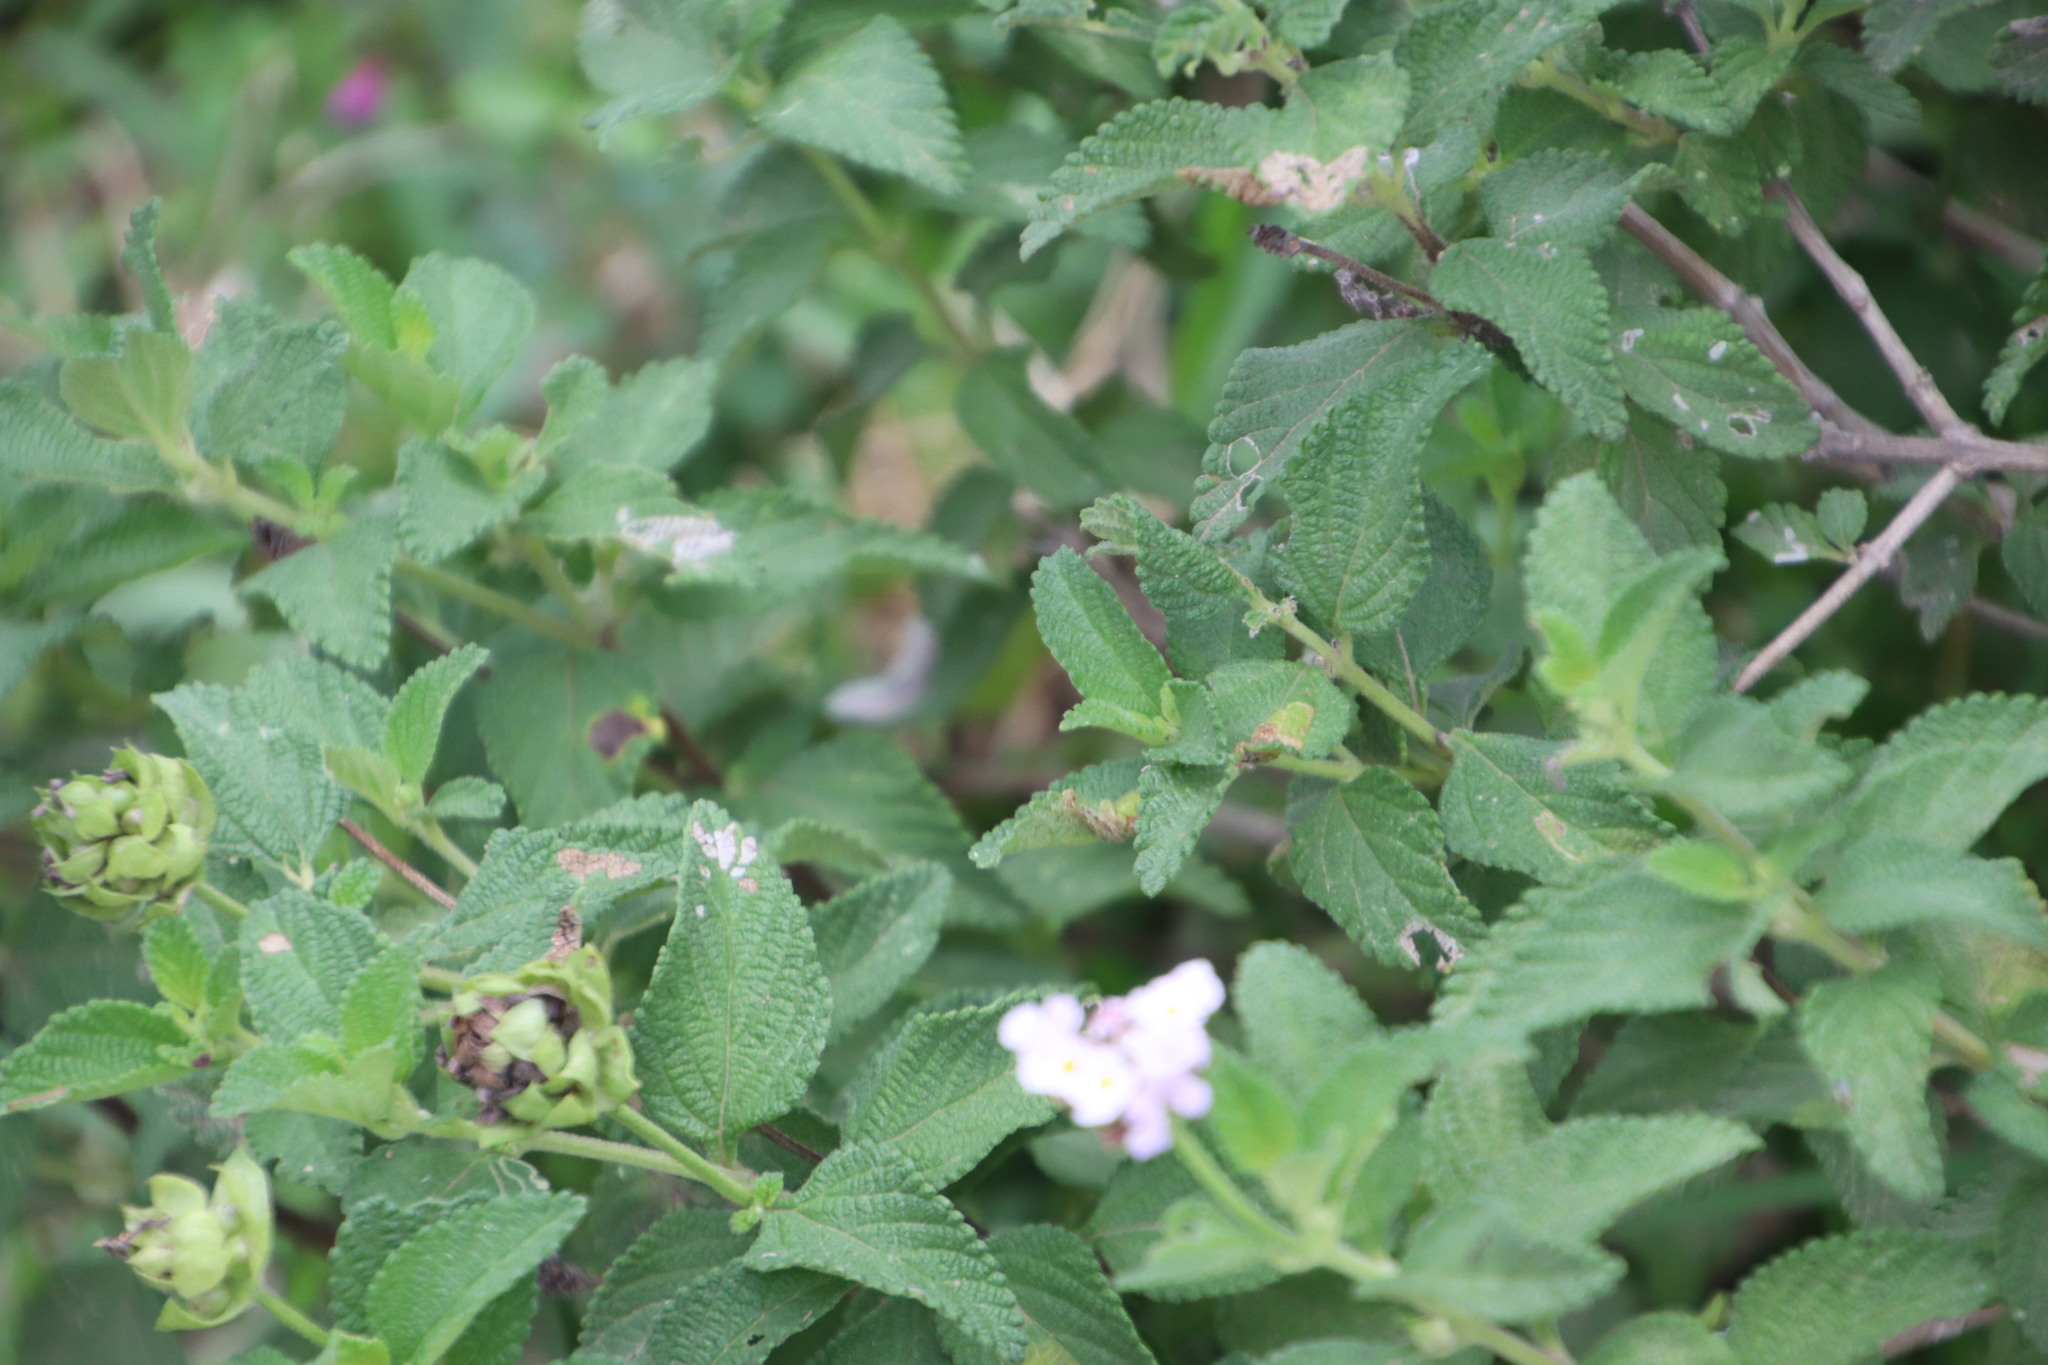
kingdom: Plantae
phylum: Tracheophyta
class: Magnoliopsida
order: Lamiales
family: Verbenaceae
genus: Lantana
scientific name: Lantana rugosa
